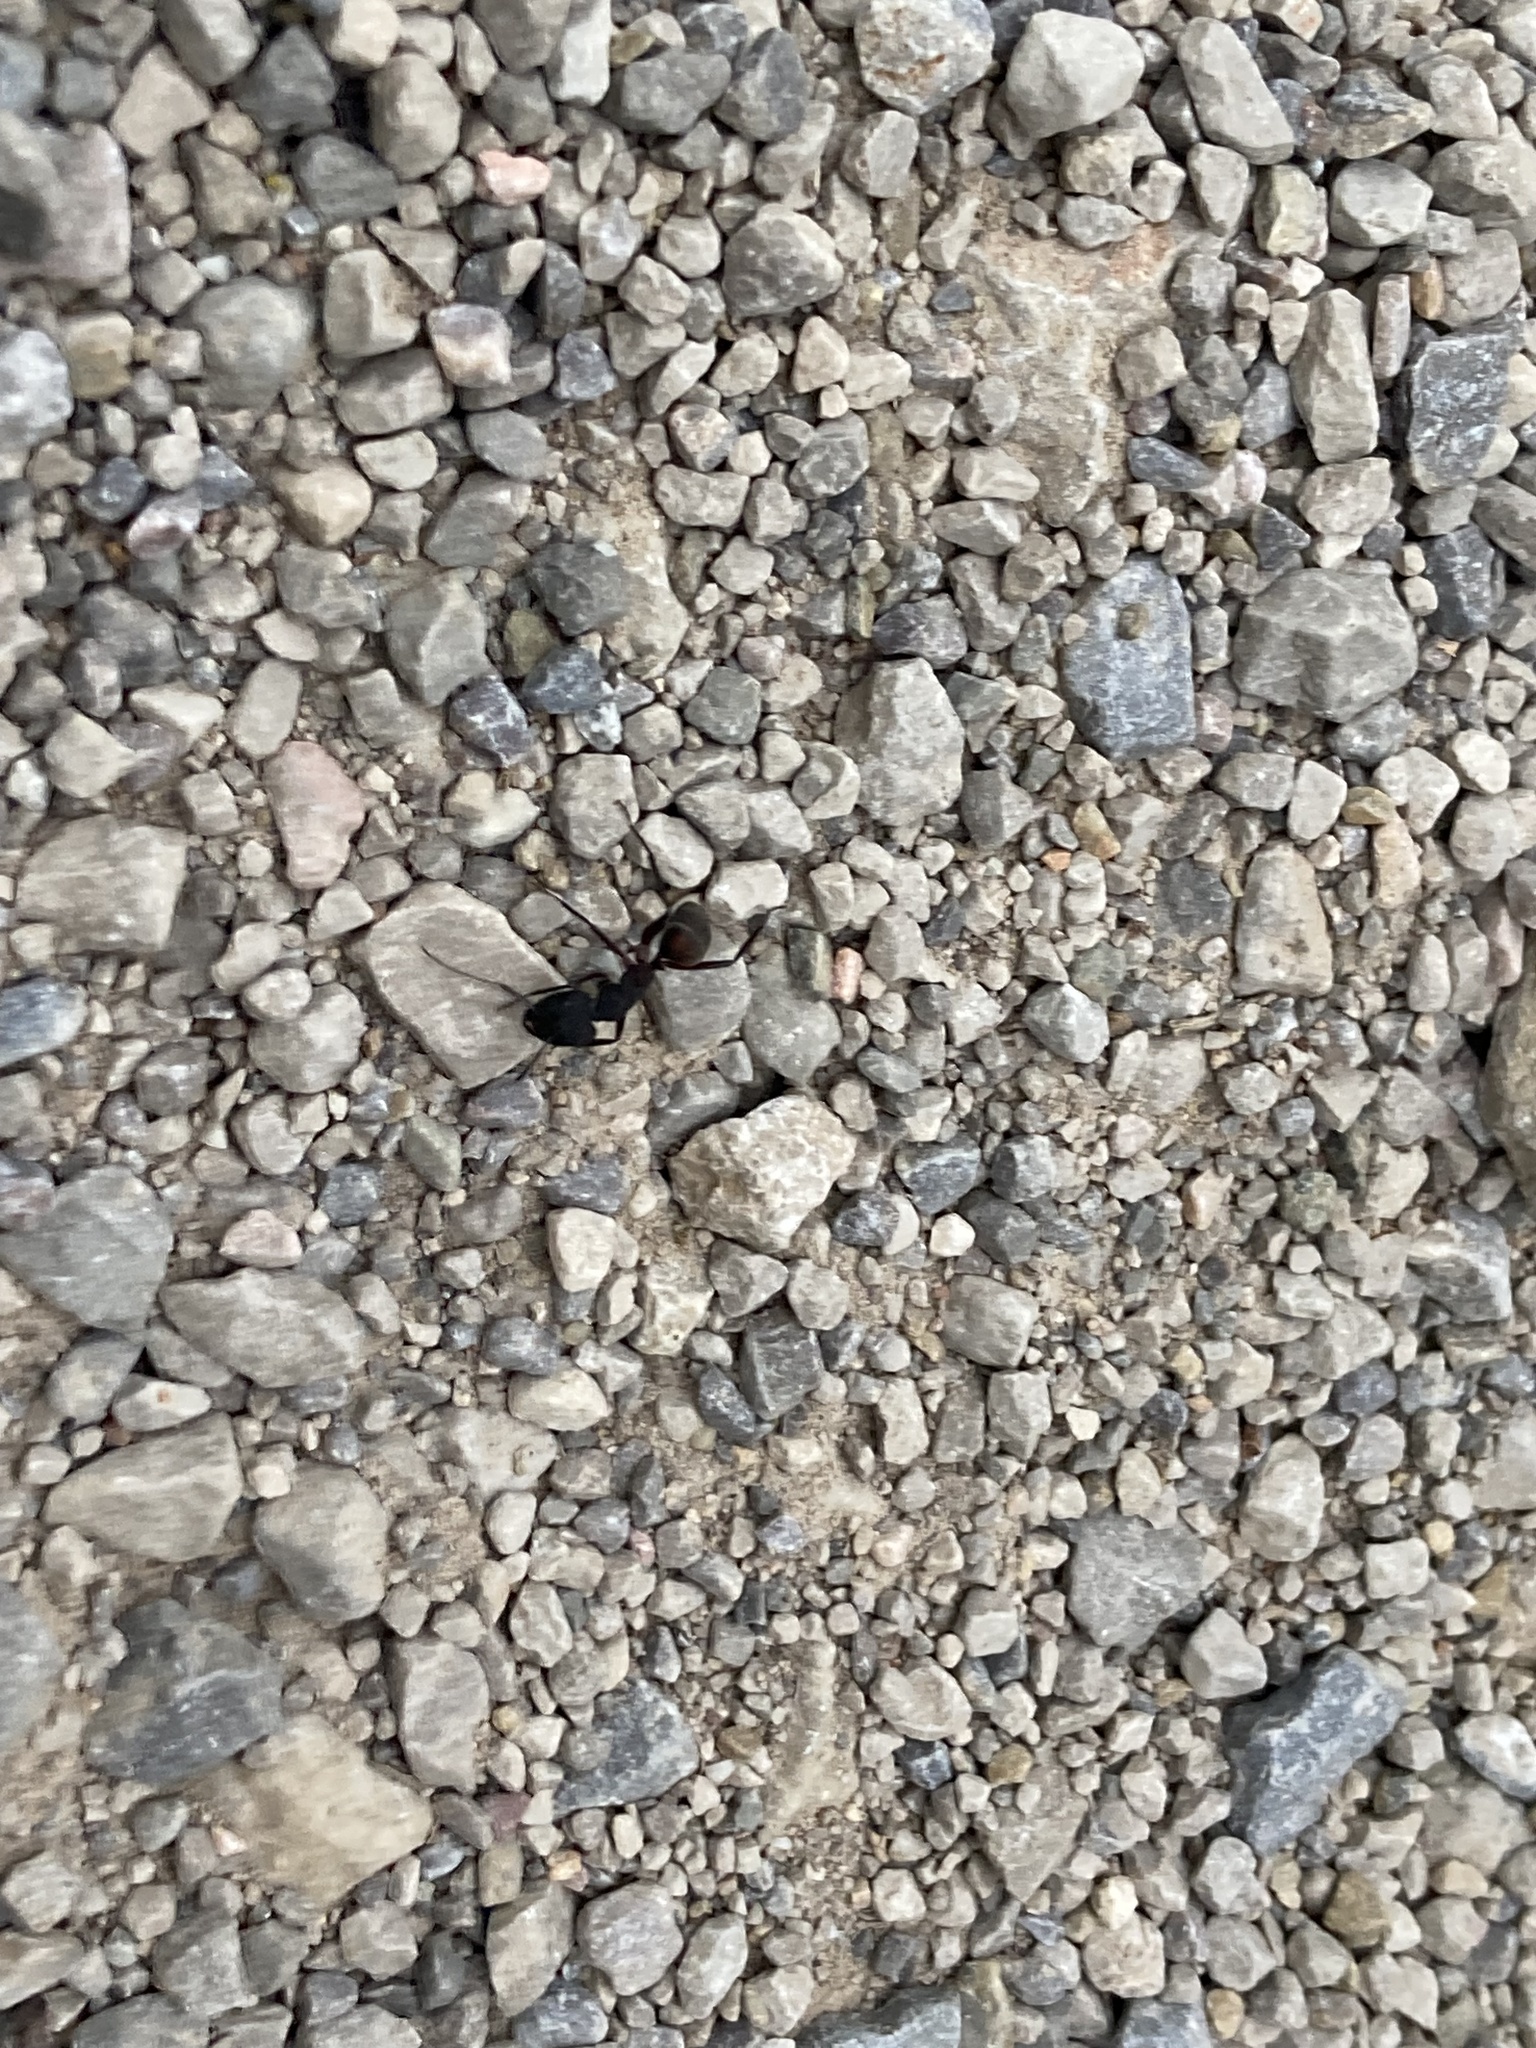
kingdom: Animalia
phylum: Arthropoda
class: Insecta
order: Hymenoptera
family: Formicidae
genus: Camponotus
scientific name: Camponotus cruentatus
